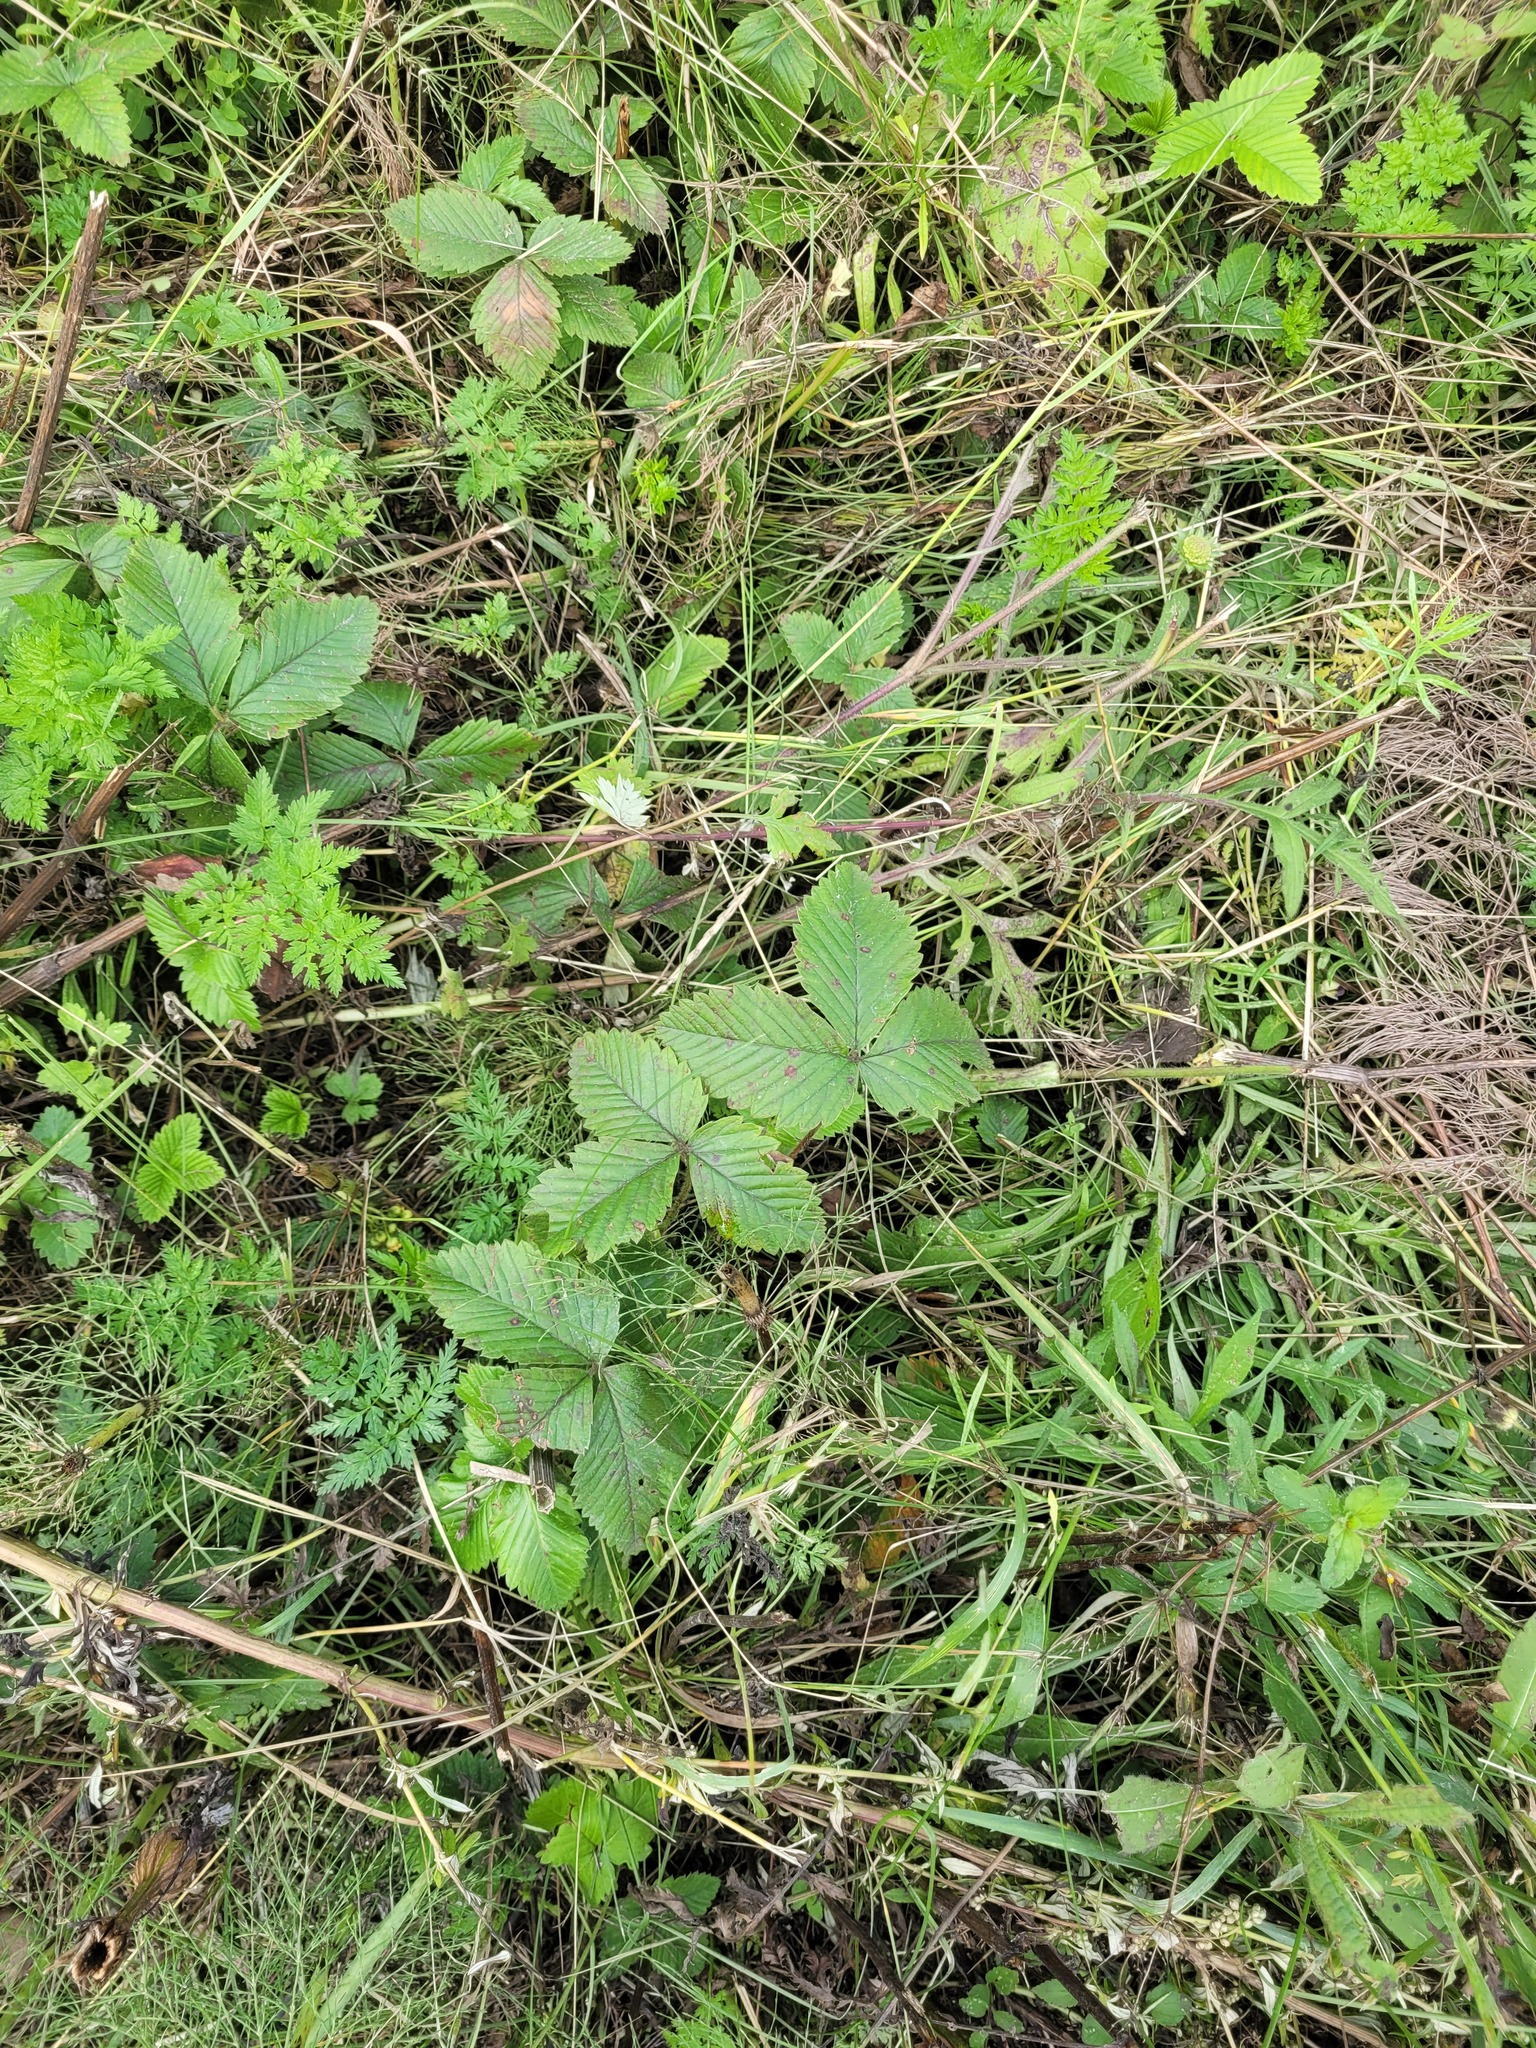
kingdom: Plantae
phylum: Tracheophyta
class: Magnoliopsida
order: Rosales
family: Rosaceae
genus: Fragaria
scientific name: Fragaria moschata
